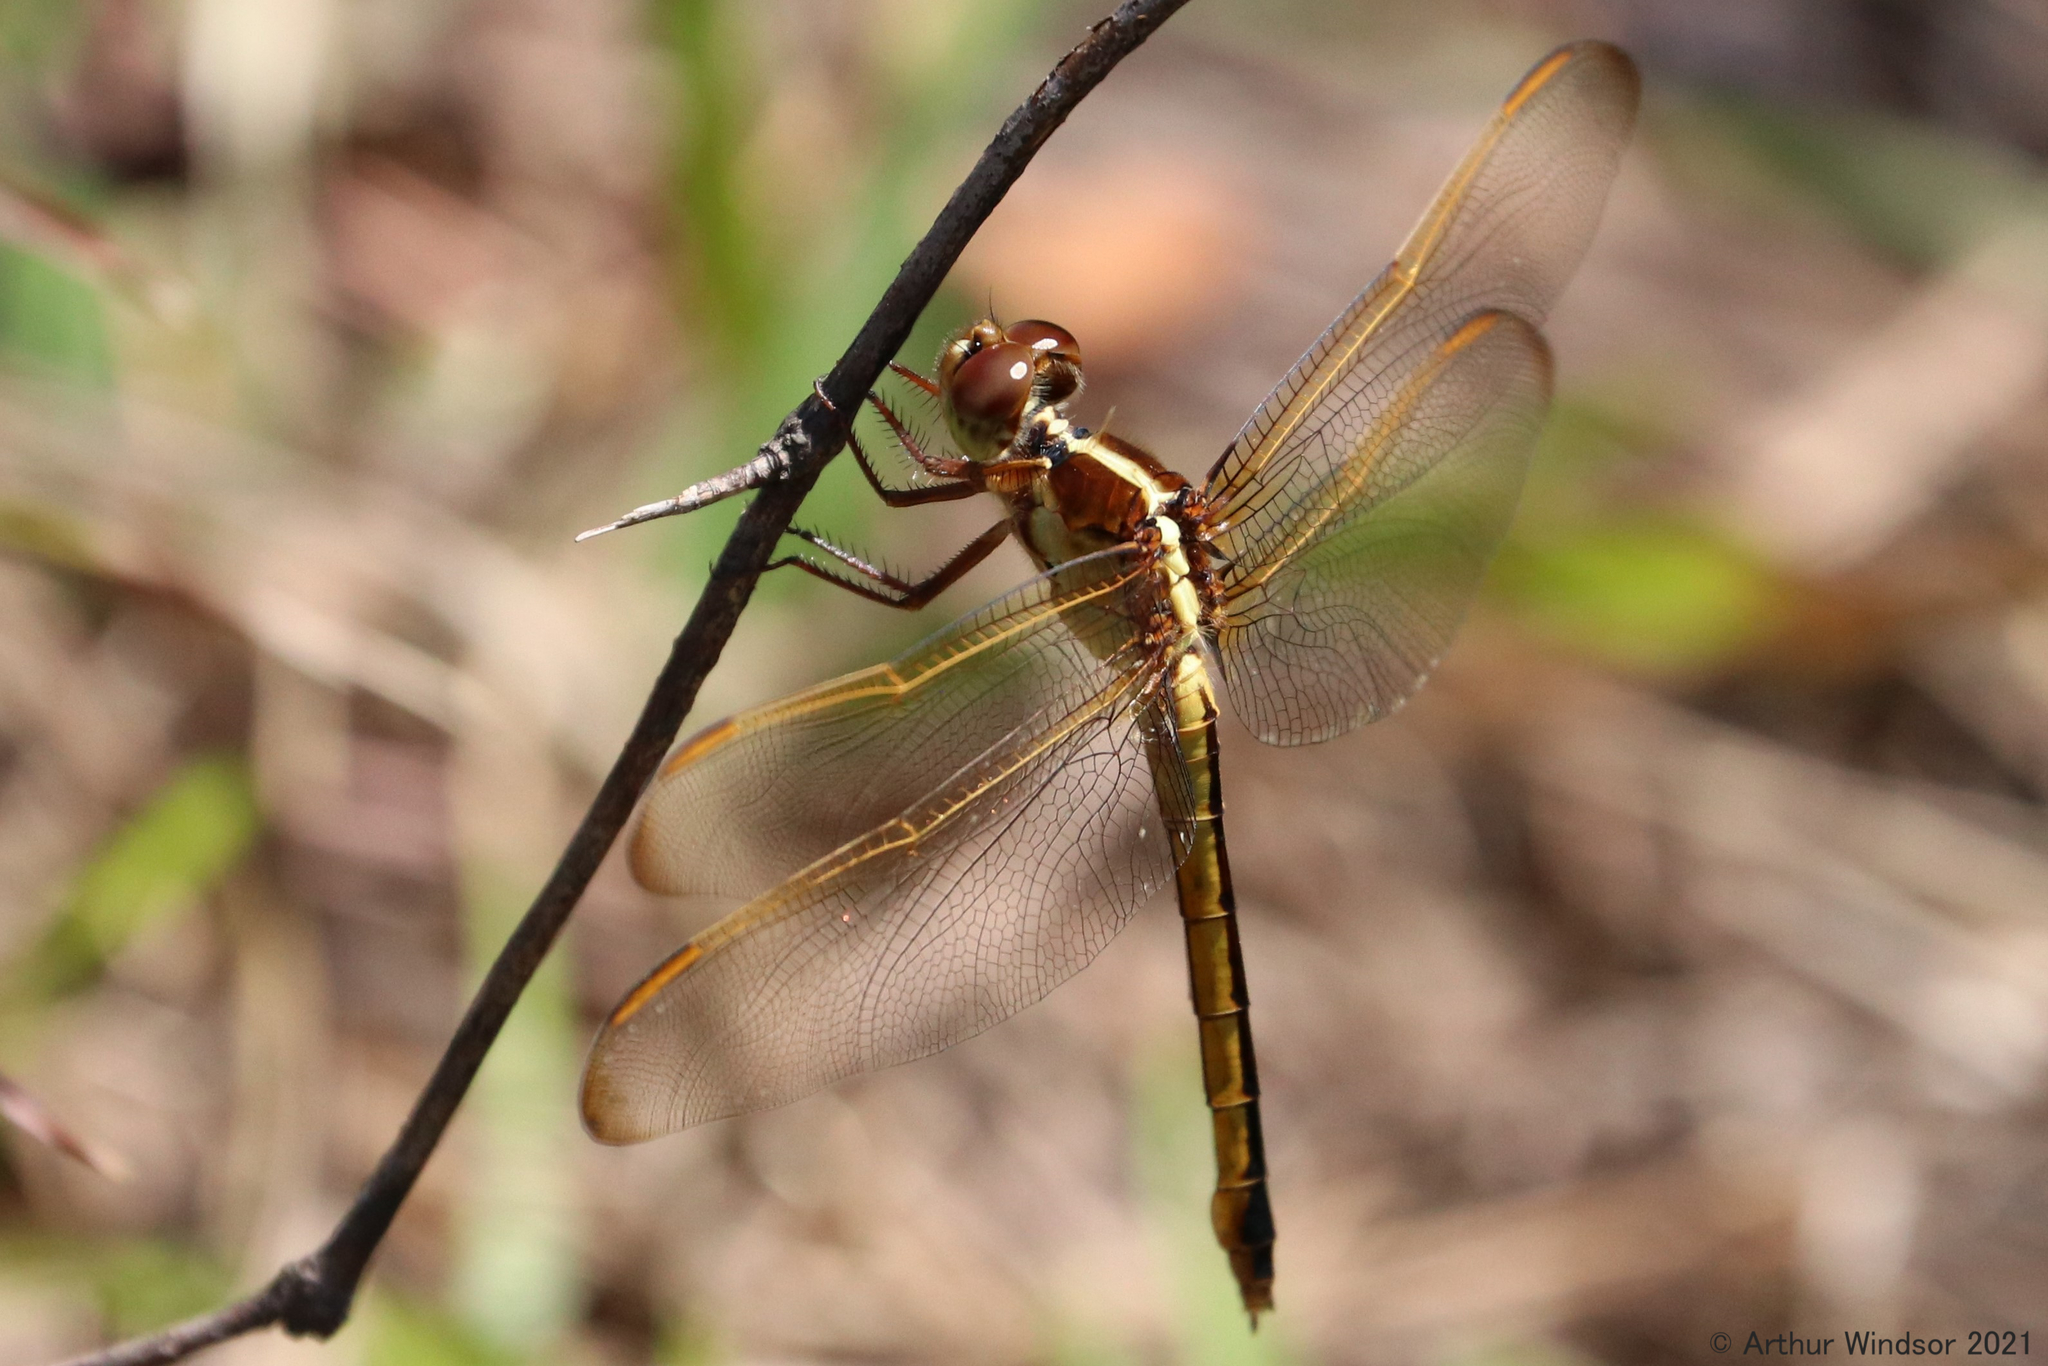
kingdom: Animalia
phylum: Arthropoda
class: Insecta
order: Odonata
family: Libellulidae
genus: Libellula
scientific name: Libellula needhami
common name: Needham's skimmer
